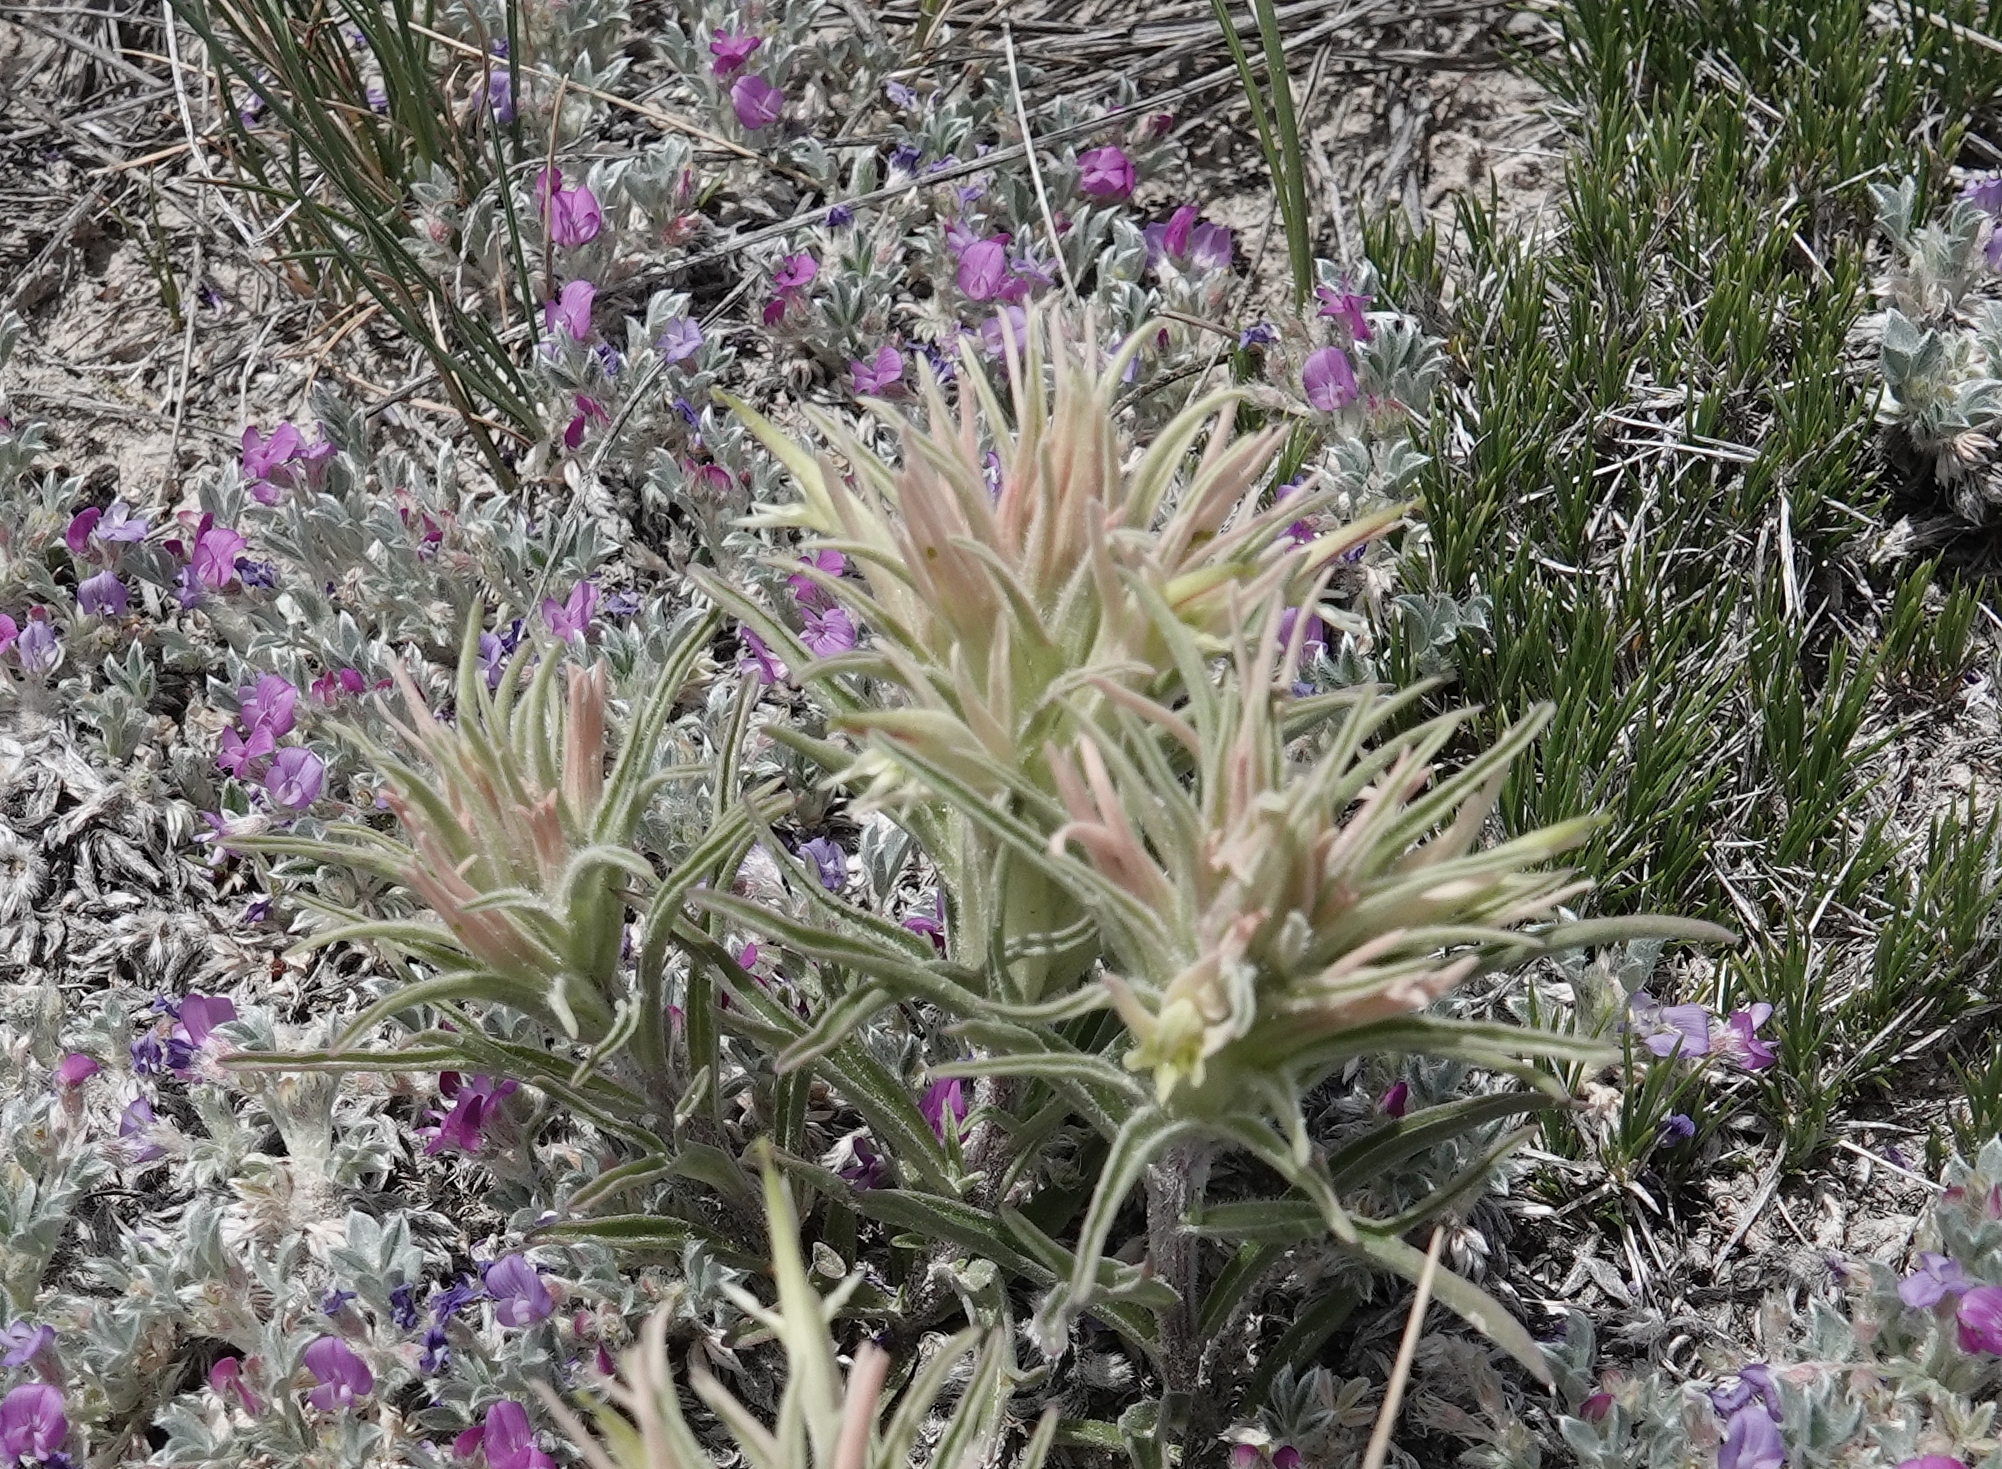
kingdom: Plantae
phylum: Tracheophyta
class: Magnoliopsida
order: Lamiales
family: Orobanchaceae
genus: Castilleja
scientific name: Castilleja sessiliflora
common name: Downy paintbrush
